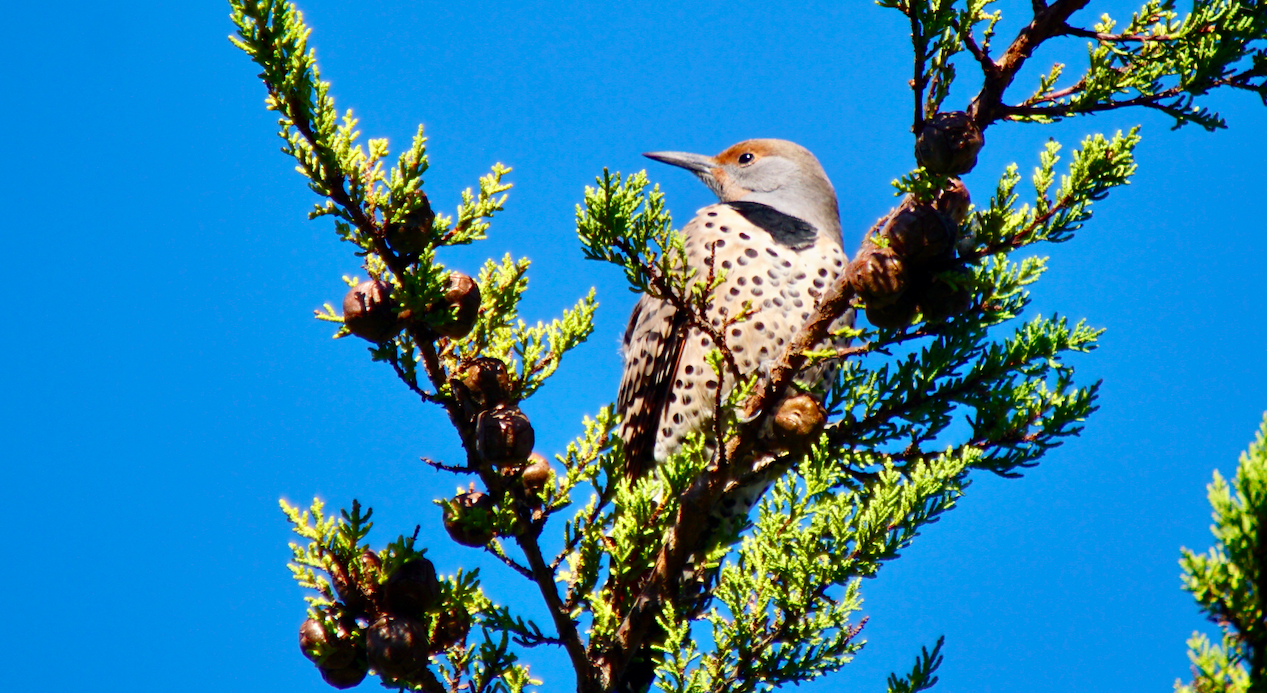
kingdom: Animalia
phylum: Chordata
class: Aves
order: Piciformes
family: Picidae
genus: Colaptes
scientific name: Colaptes auratus
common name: Northern flicker
